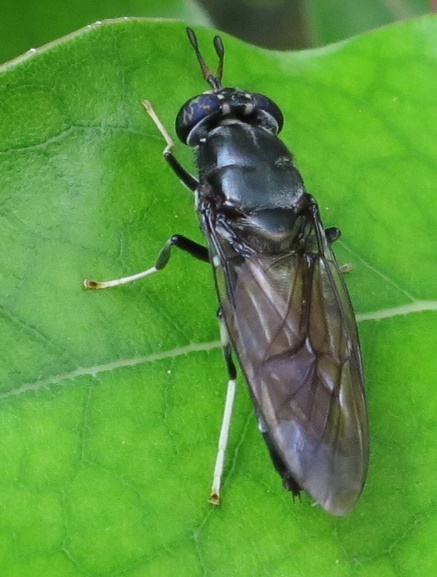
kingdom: Animalia
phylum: Arthropoda
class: Insecta
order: Diptera
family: Stratiomyidae
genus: Hermetia
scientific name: Hermetia illucens
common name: Black soldier fly
